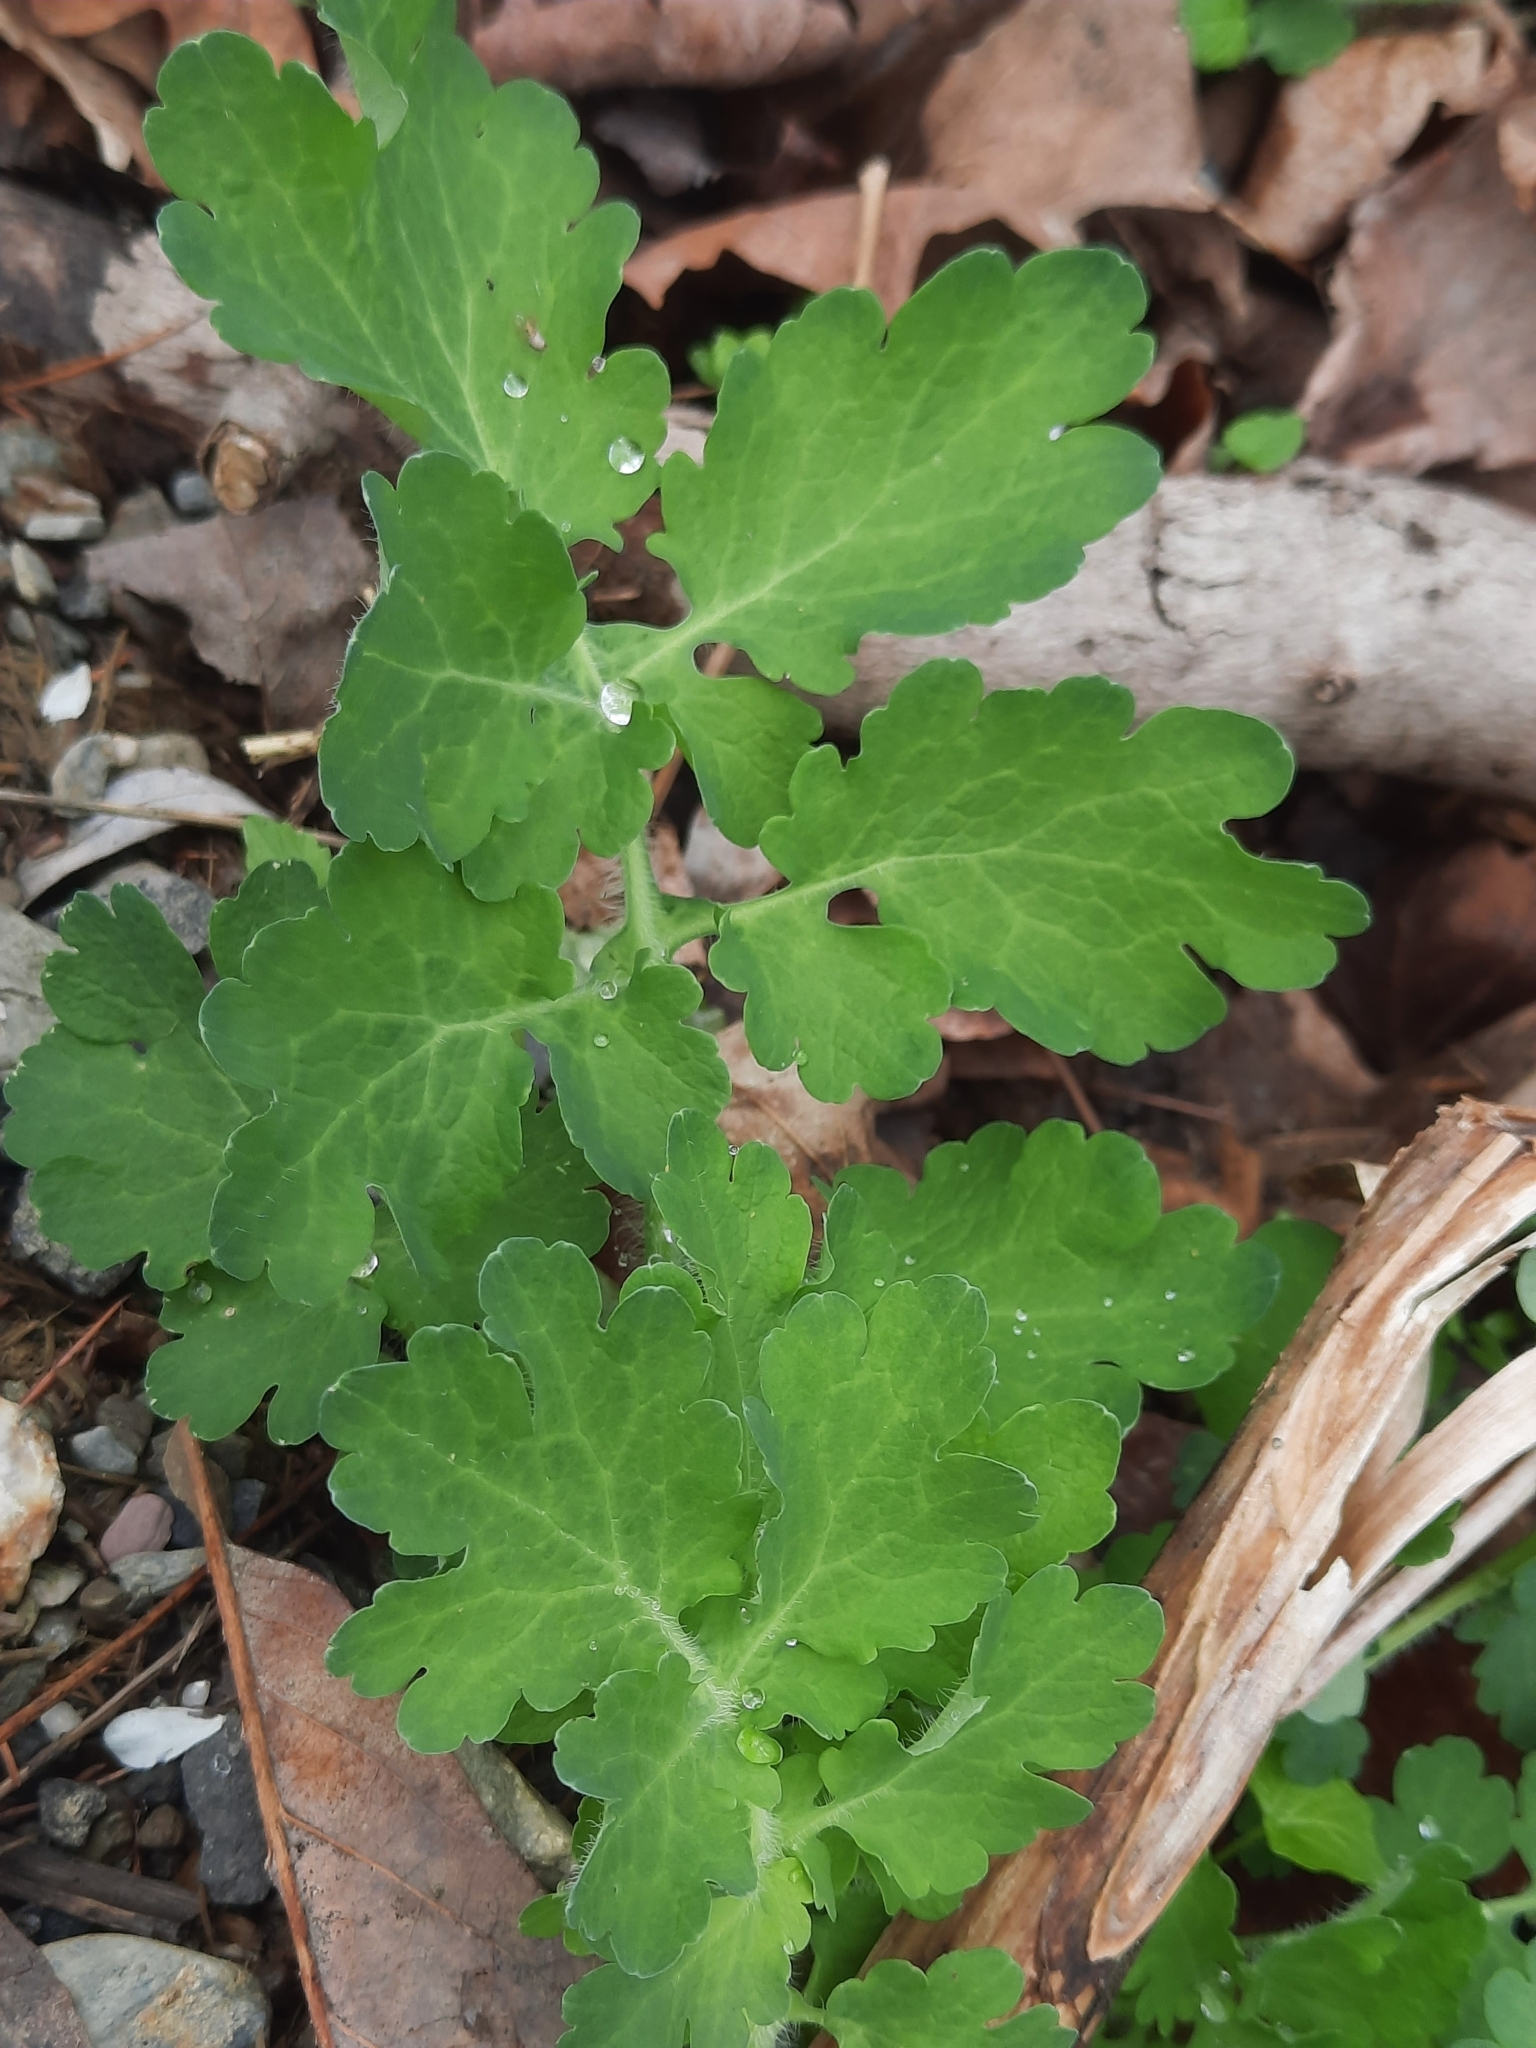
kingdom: Plantae
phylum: Tracheophyta
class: Magnoliopsida
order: Ranunculales
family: Papaveraceae
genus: Chelidonium
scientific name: Chelidonium majus
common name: Greater celandine
